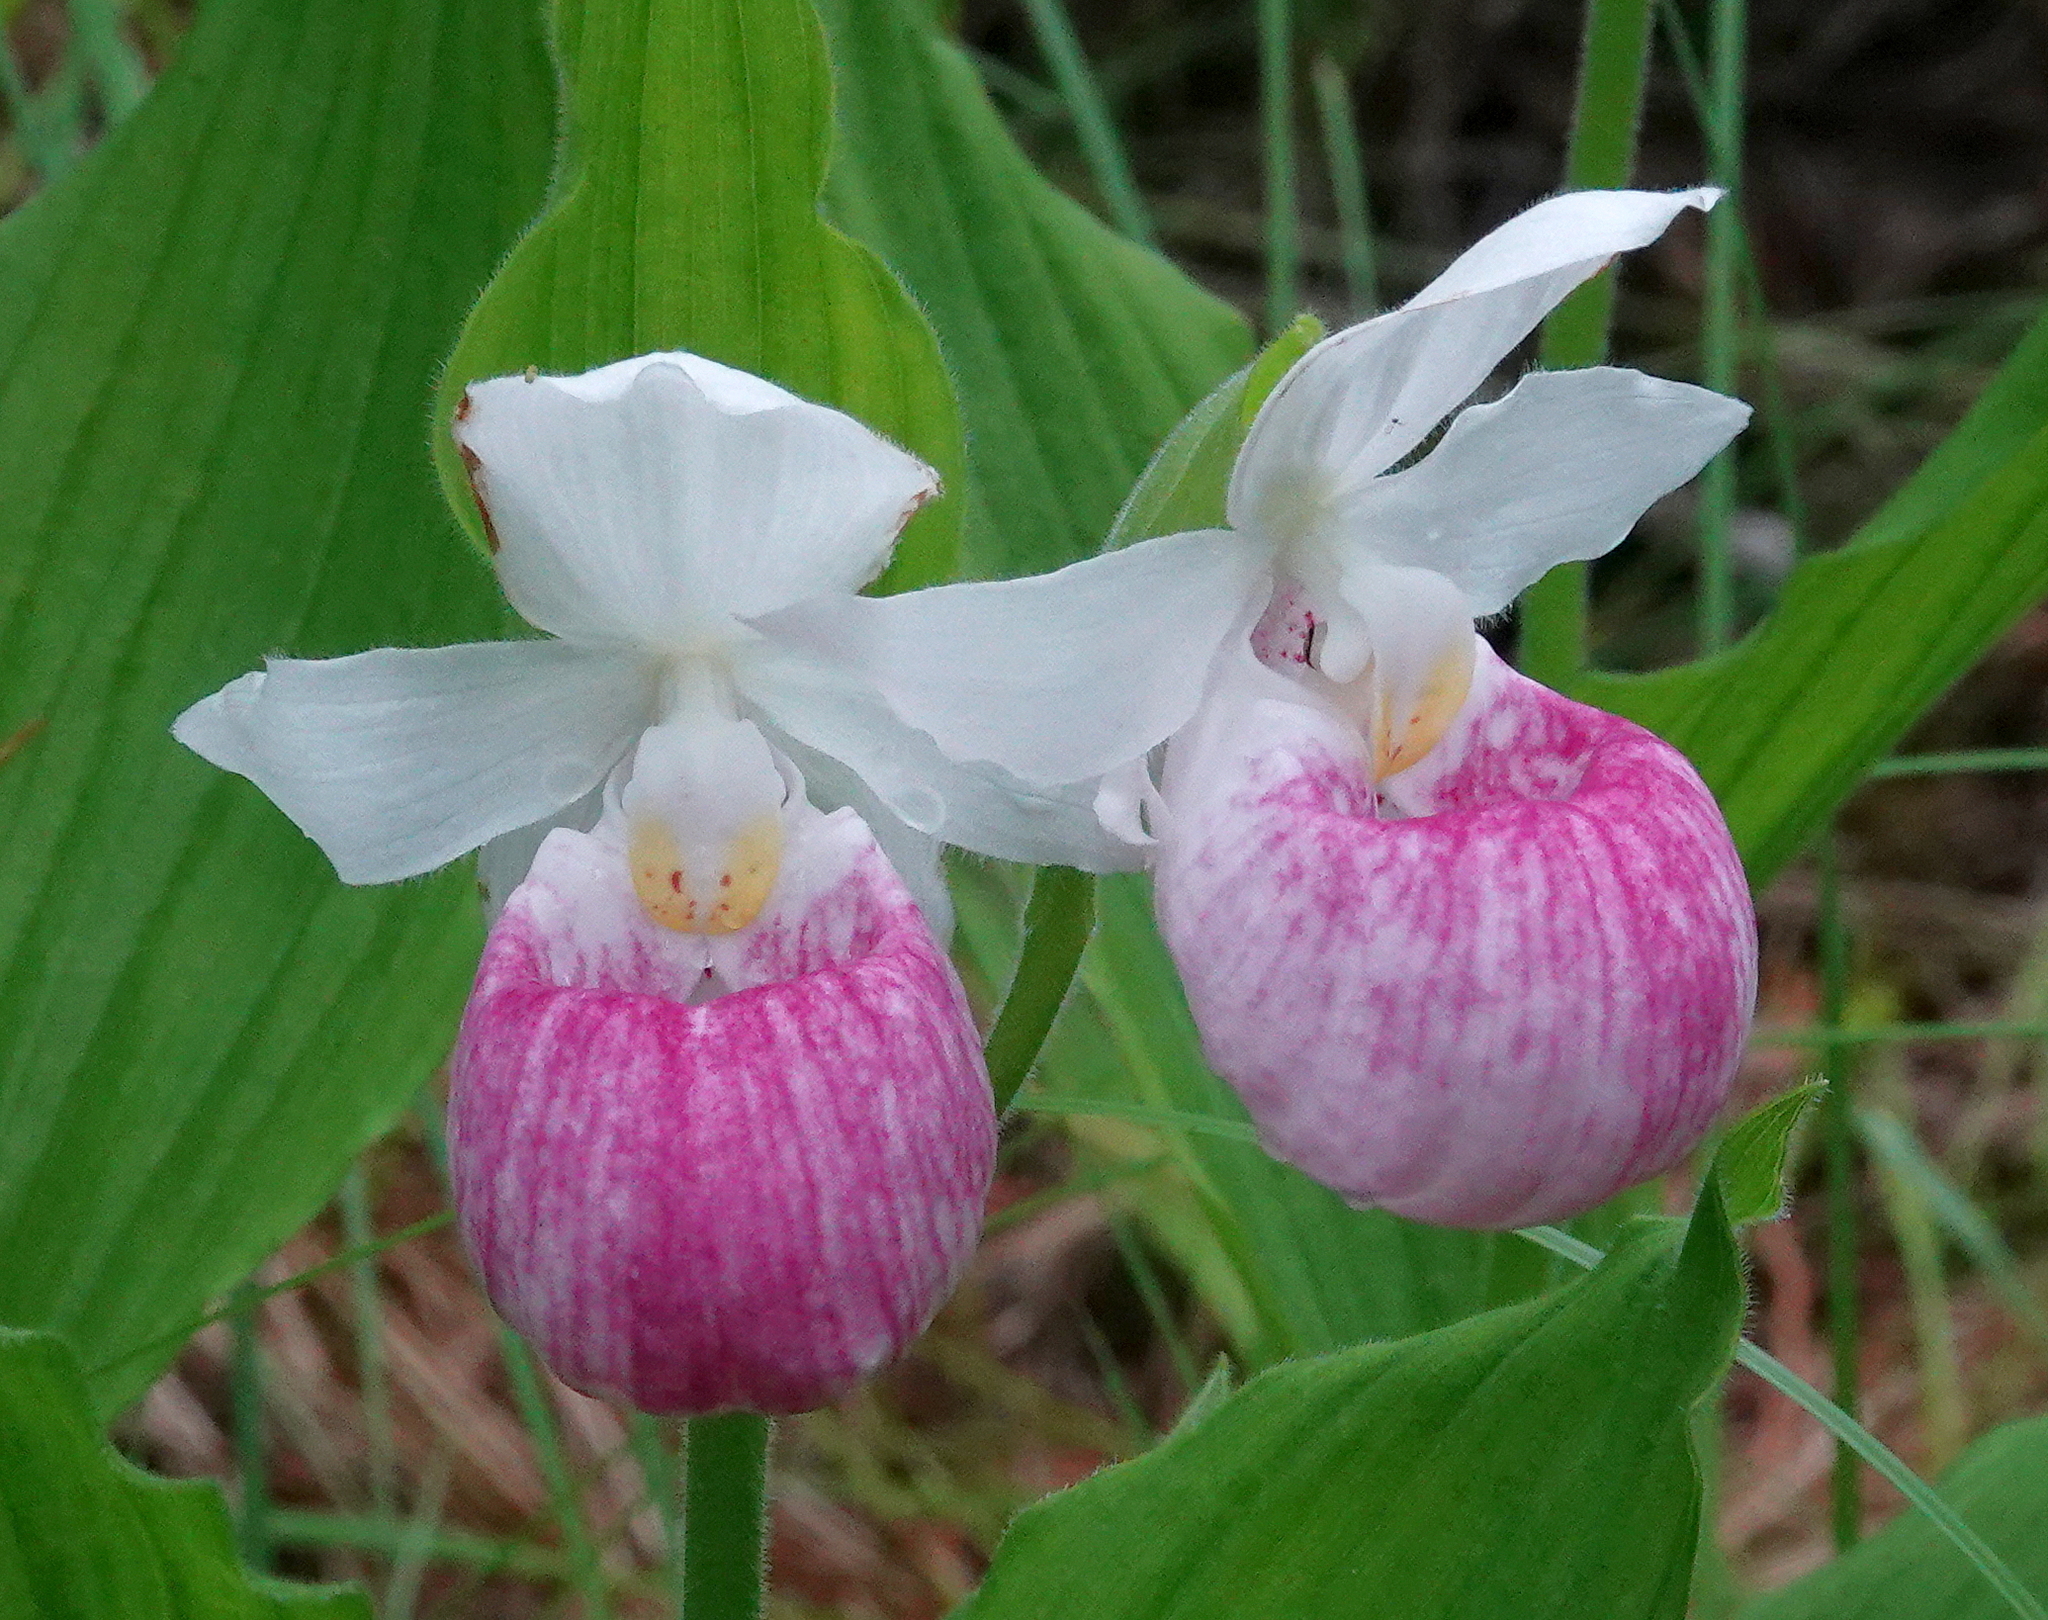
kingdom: Plantae
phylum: Tracheophyta
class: Liliopsida
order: Asparagales
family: Orchidaceae
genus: Cypripedium
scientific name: Cypripedium reginae
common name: Queen lady's-slipper
